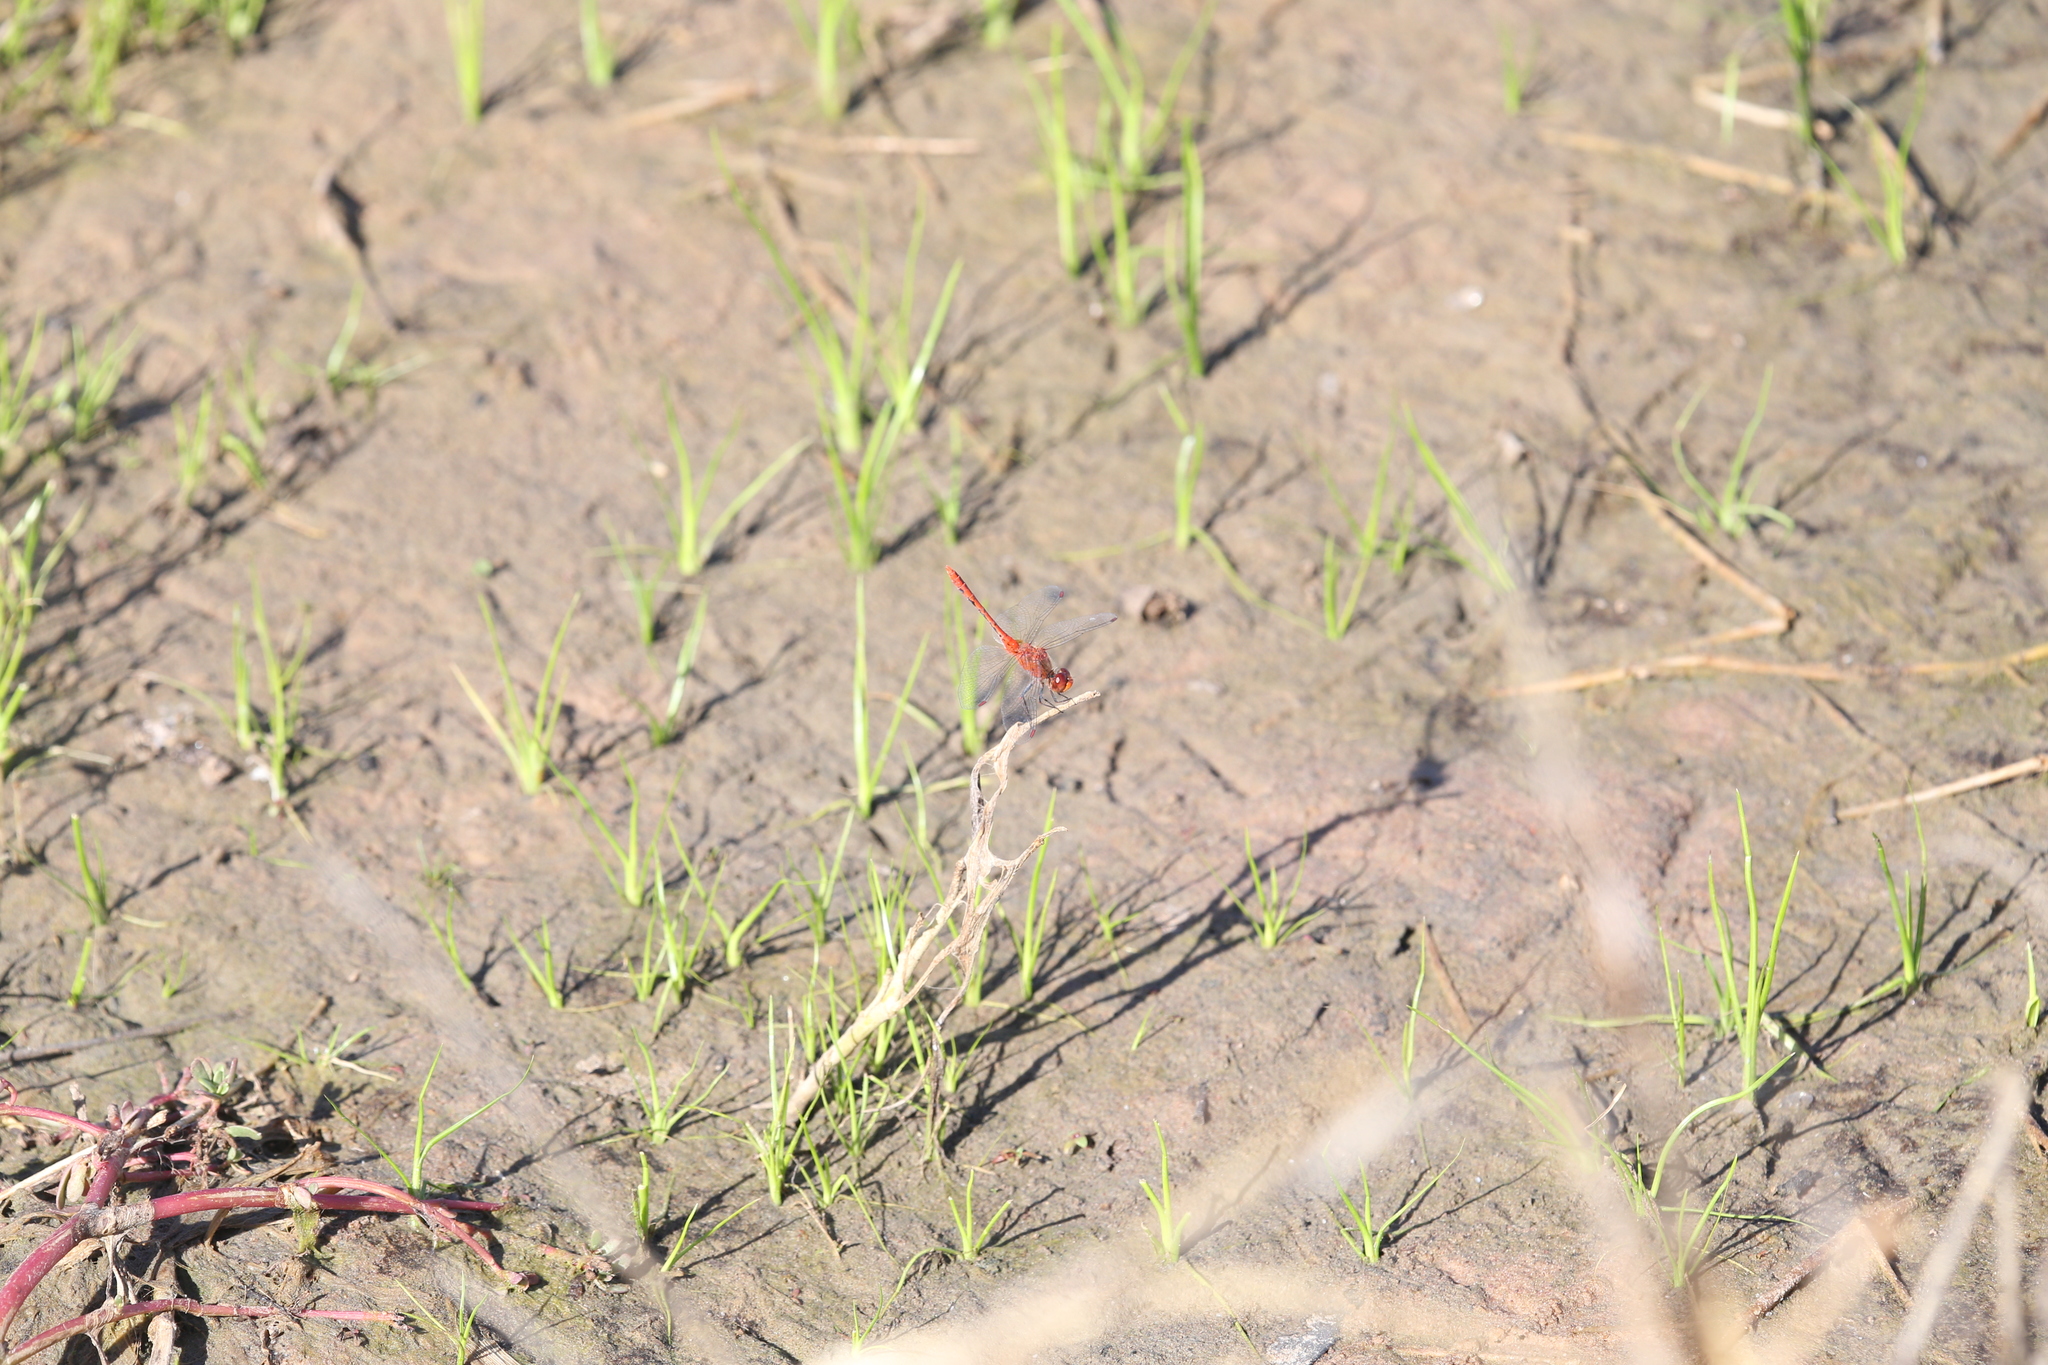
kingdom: Animalia
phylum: Arthropoda
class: Insecta
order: Odonata
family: Libellulidae
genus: Diplacodes
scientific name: Diplacodes bipunctata
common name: Red percher dragonfly
